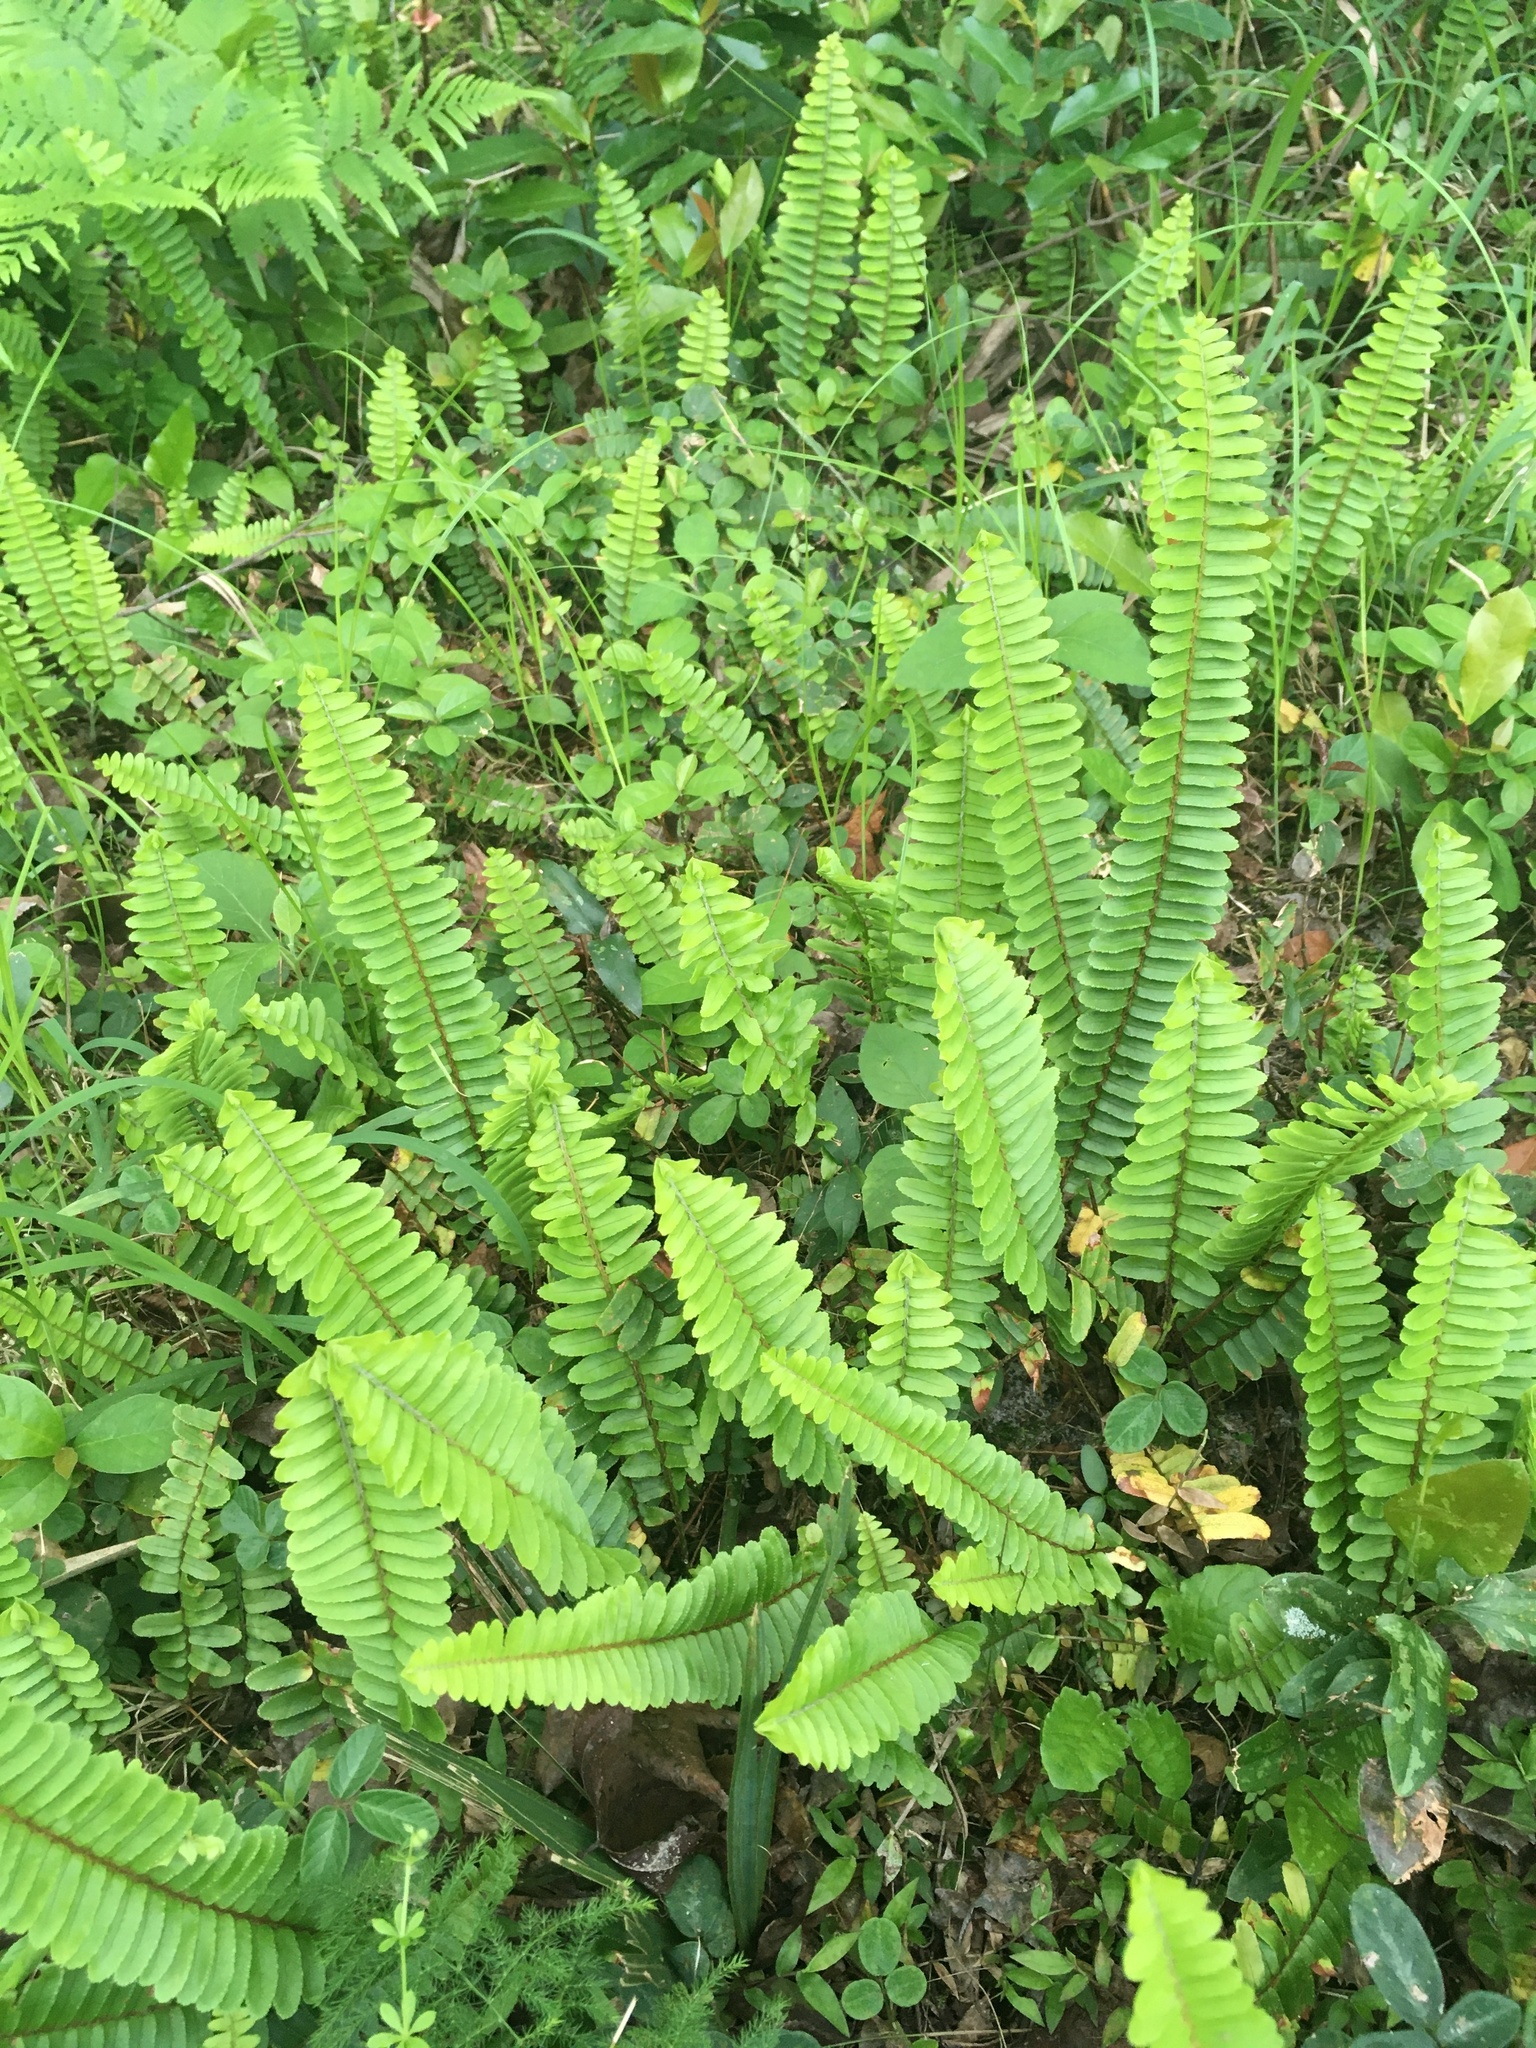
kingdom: Plantae
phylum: Tracheophyta
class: Polypodiopsida
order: Polypodiales
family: Nephrolepidaceae
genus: Nephrolepis
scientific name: Nephrolepis cordifolia
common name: Narrow swordfern
